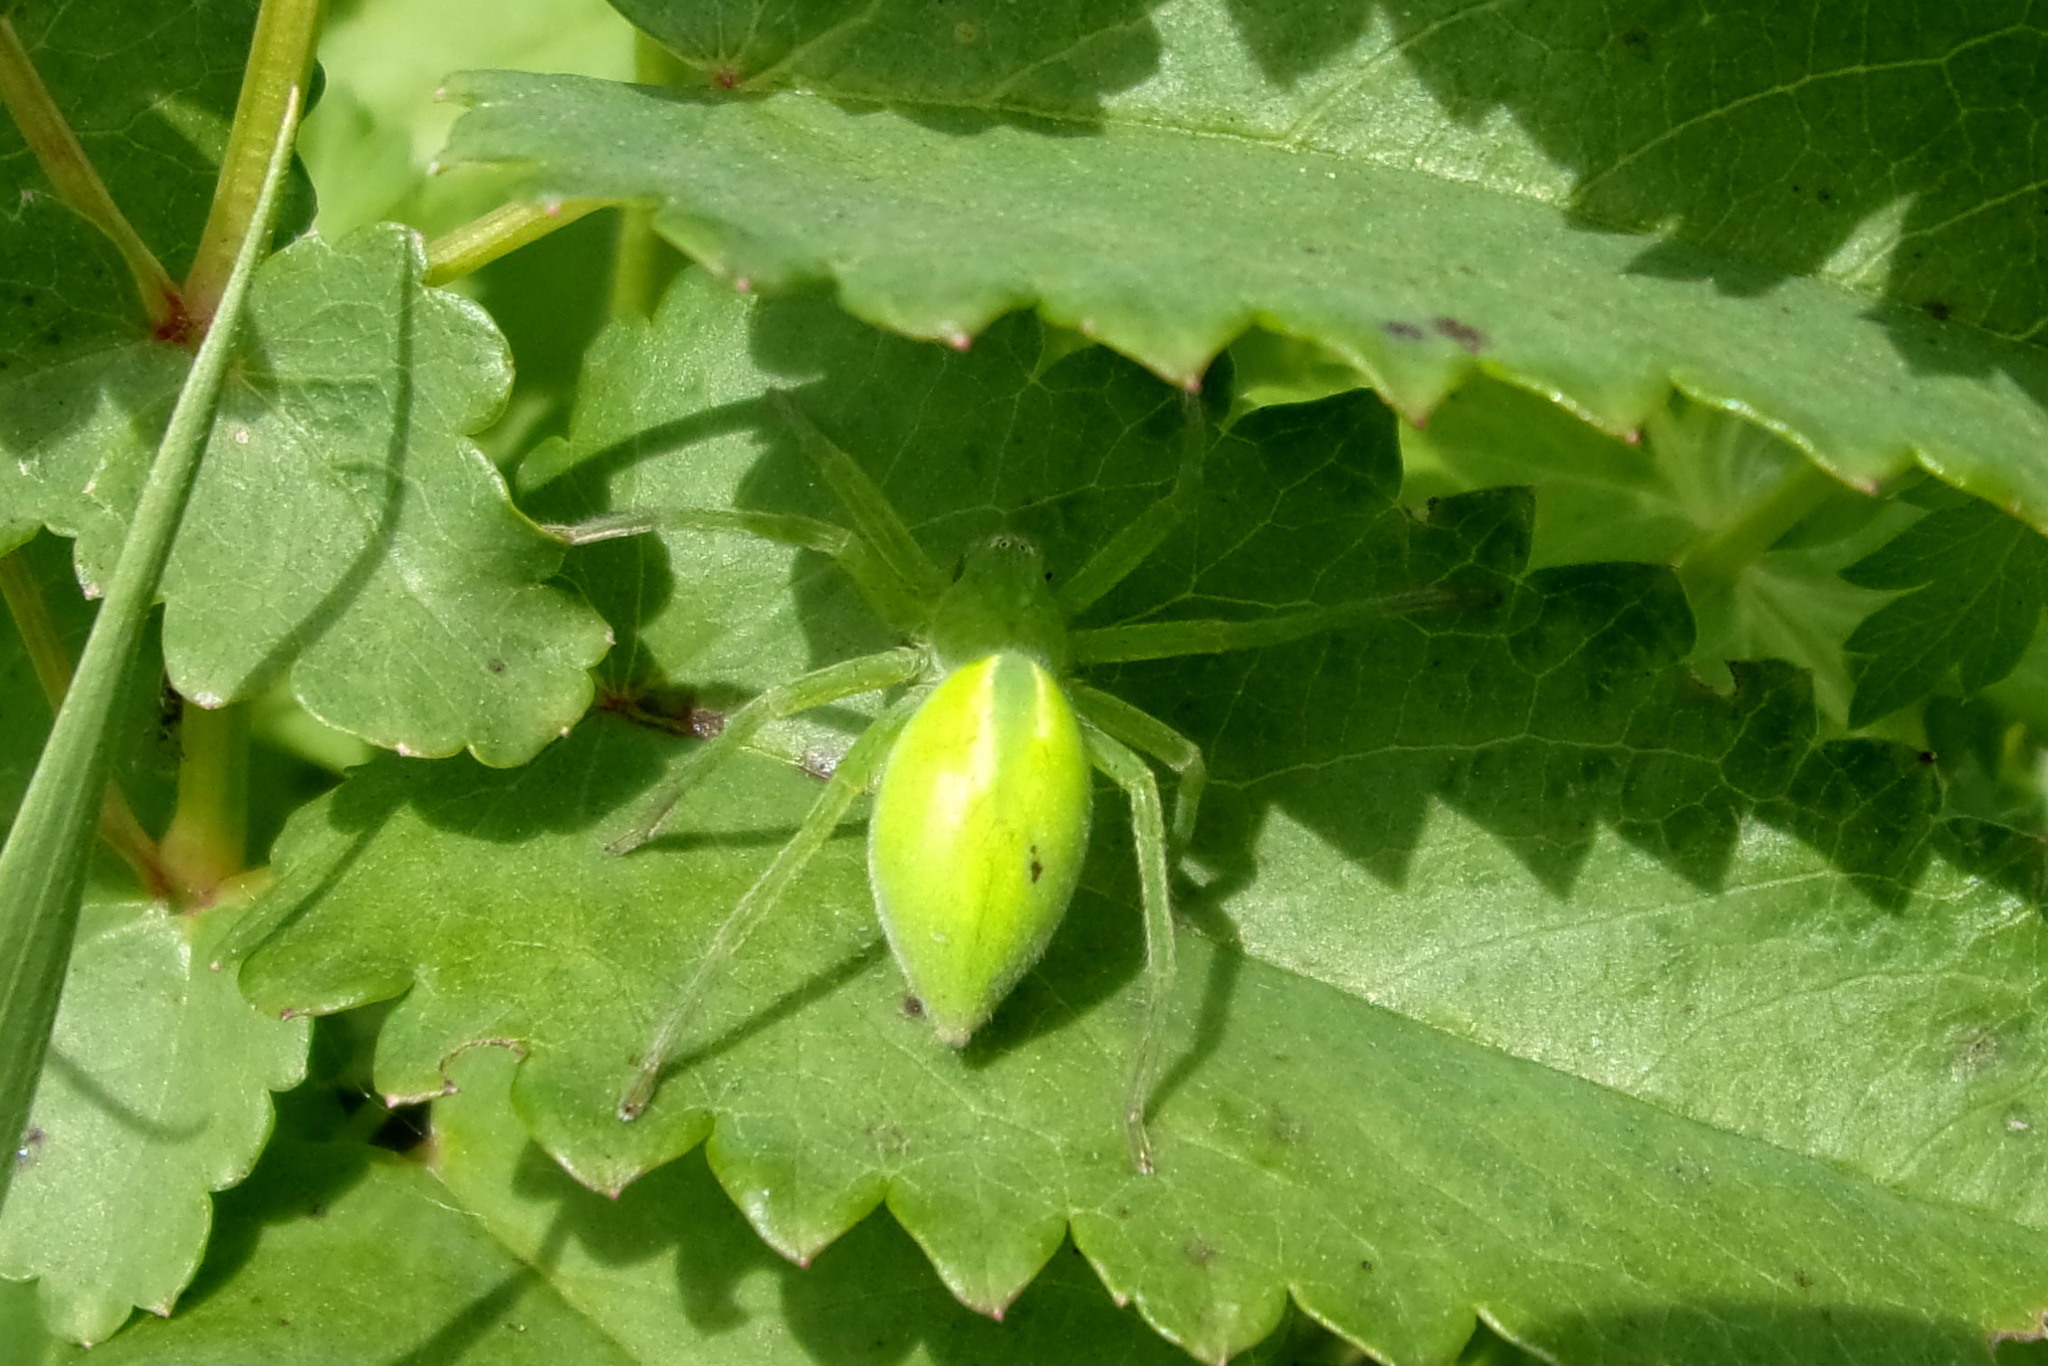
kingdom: Animalia
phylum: Arthropoda
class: Arachnida
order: Araneae
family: Sparassidae
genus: Micrommata
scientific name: Micrommata virescens
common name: Green spider
